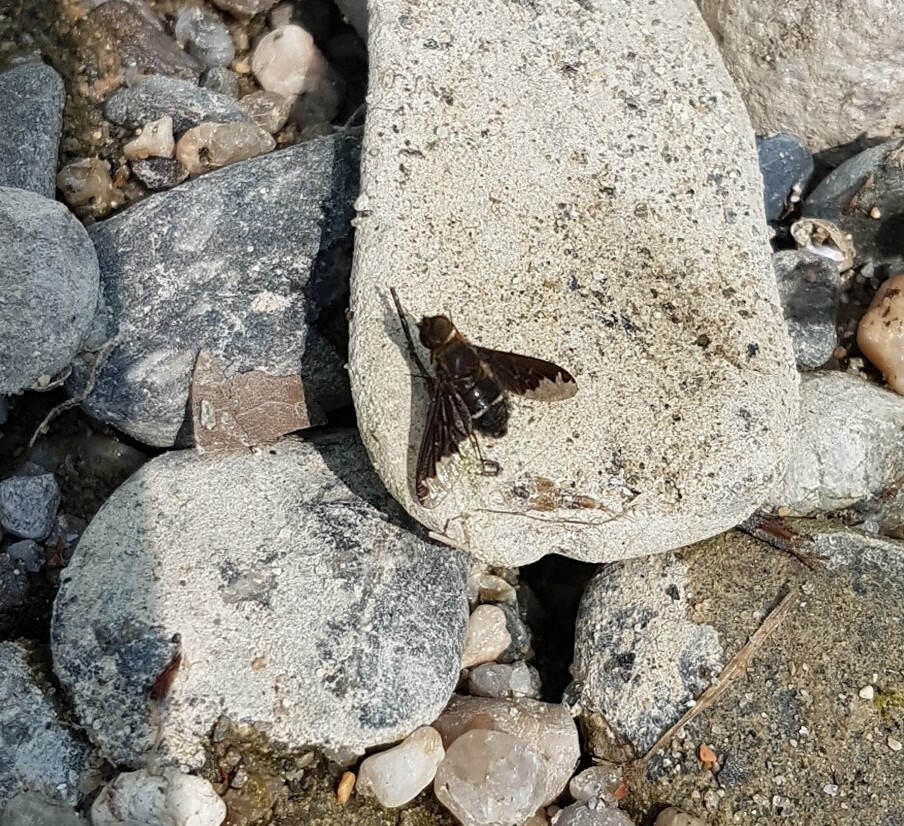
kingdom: Animalia
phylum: Arthropoda
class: Insecta
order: Diptera
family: Bombyliidae
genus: Hemipenthes
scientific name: Hemipenthes velutina
